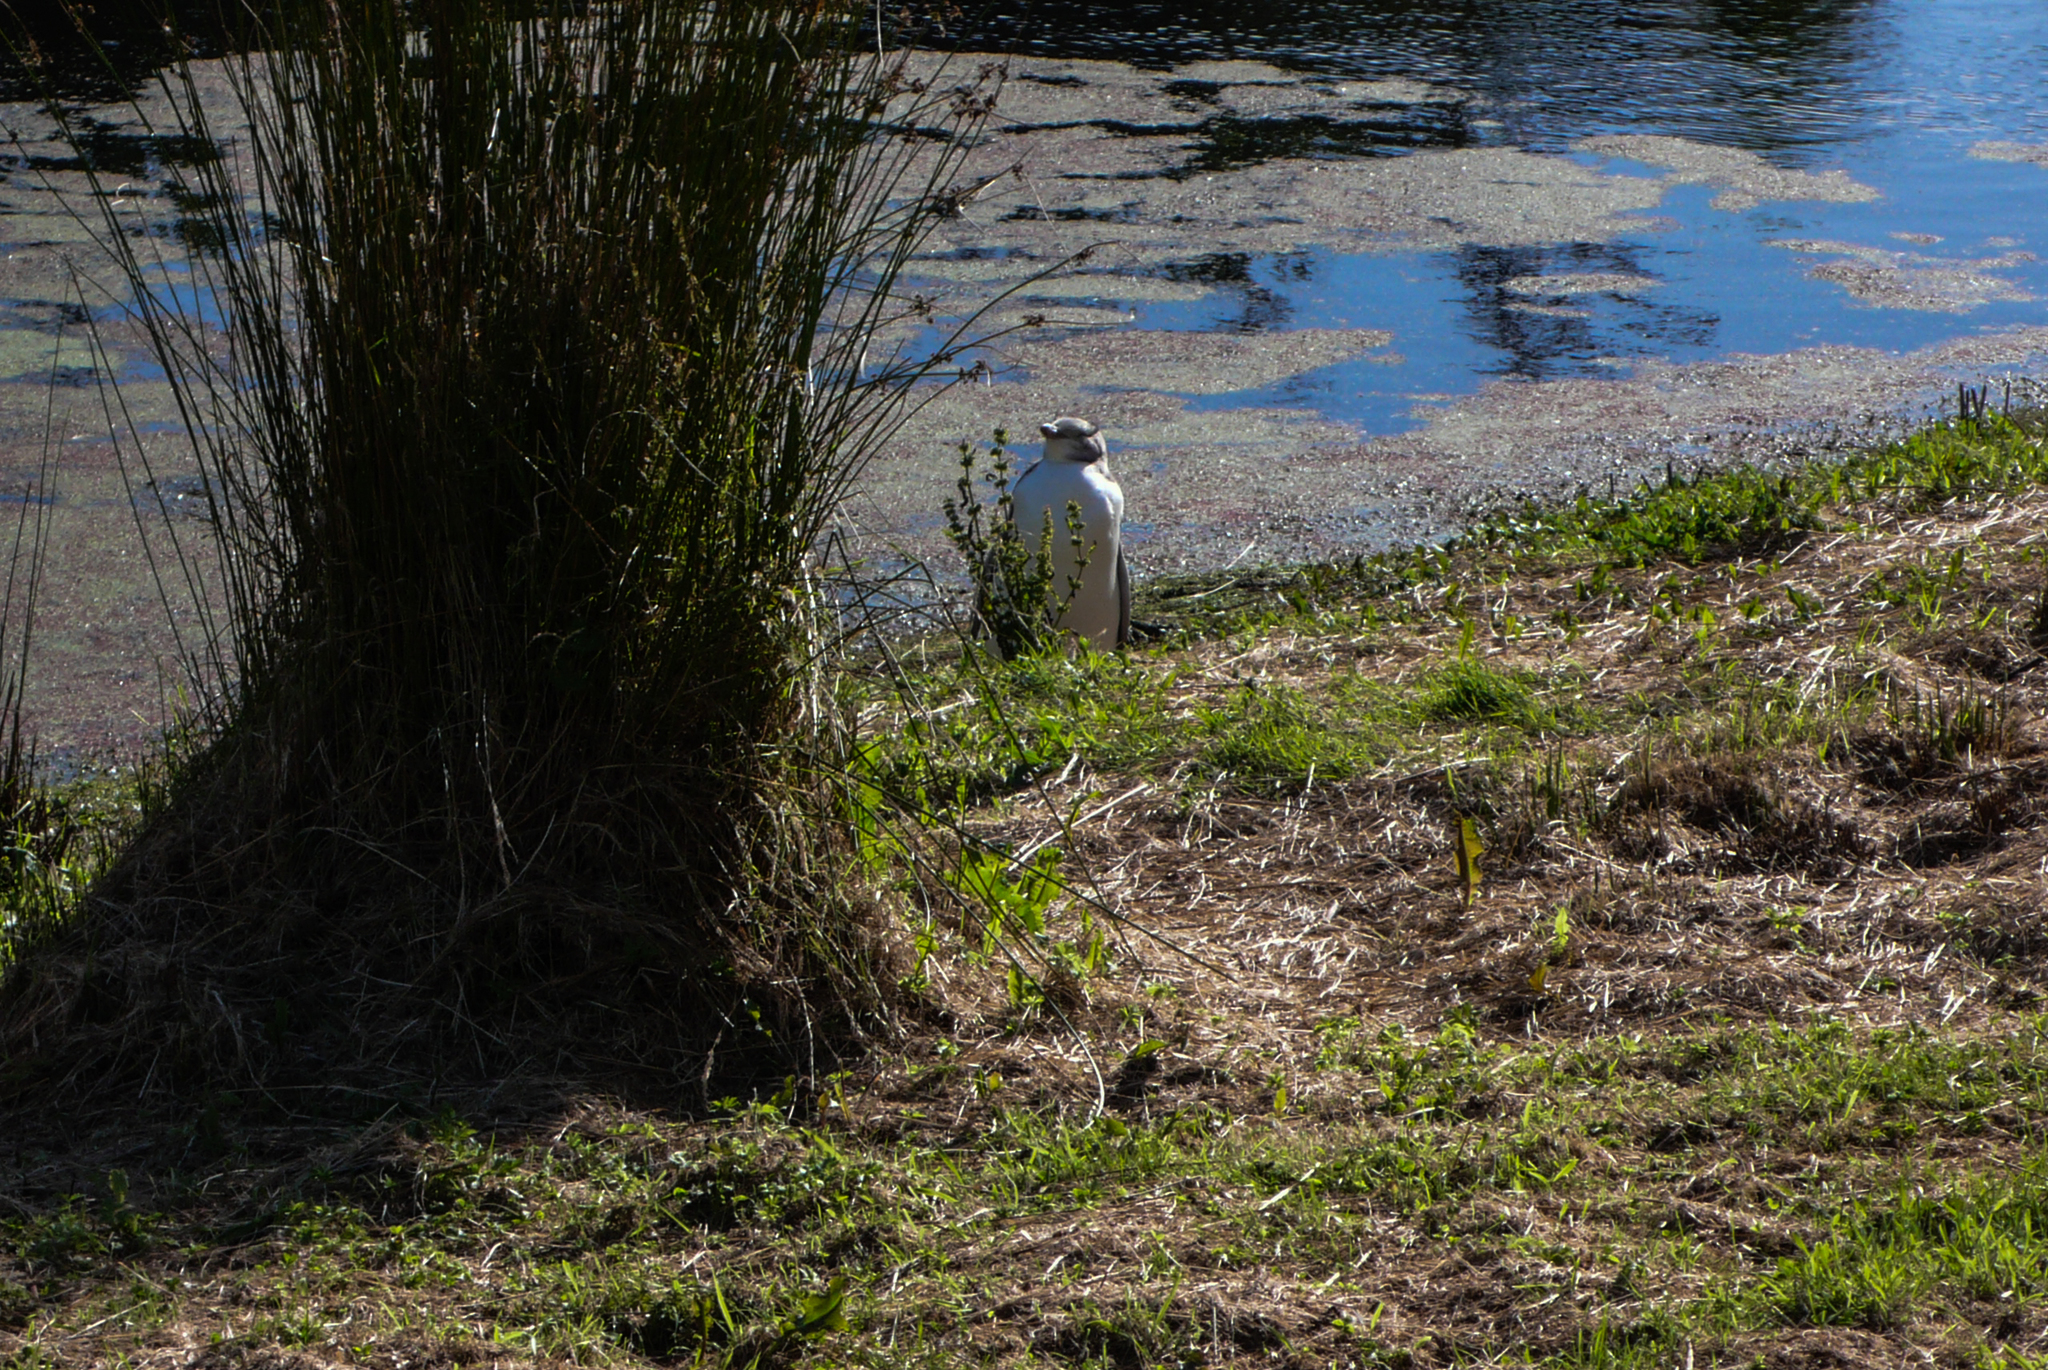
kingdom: Animalia
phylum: Chordata
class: Aves
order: Sphenisciformes
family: Spheniscidae
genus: Megadyptes
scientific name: Megadyptes antipodes
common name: Yellow-eyed penguin
